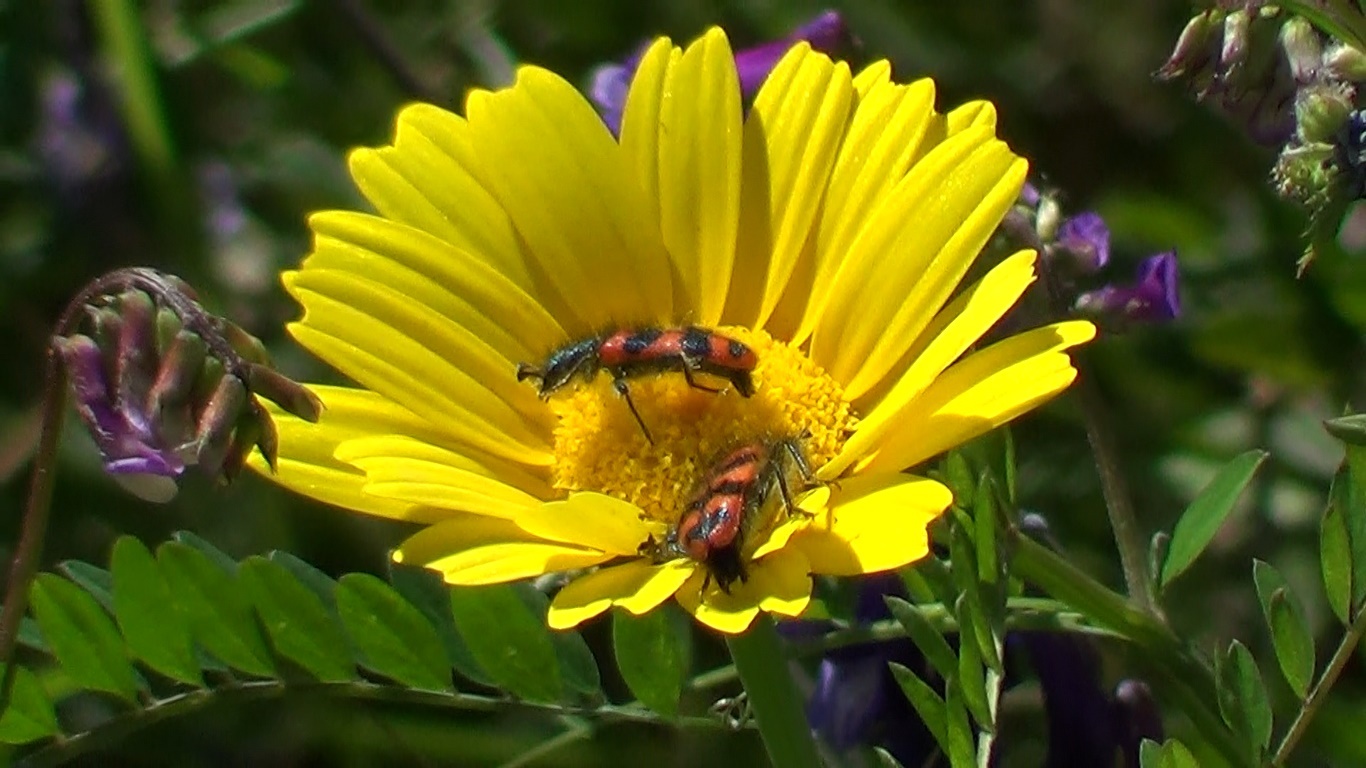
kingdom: Animalia
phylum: Arthropoda
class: Insecta
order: Coleoptera
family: Cleridae
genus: Trichodes
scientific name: Trichodes alvearius
